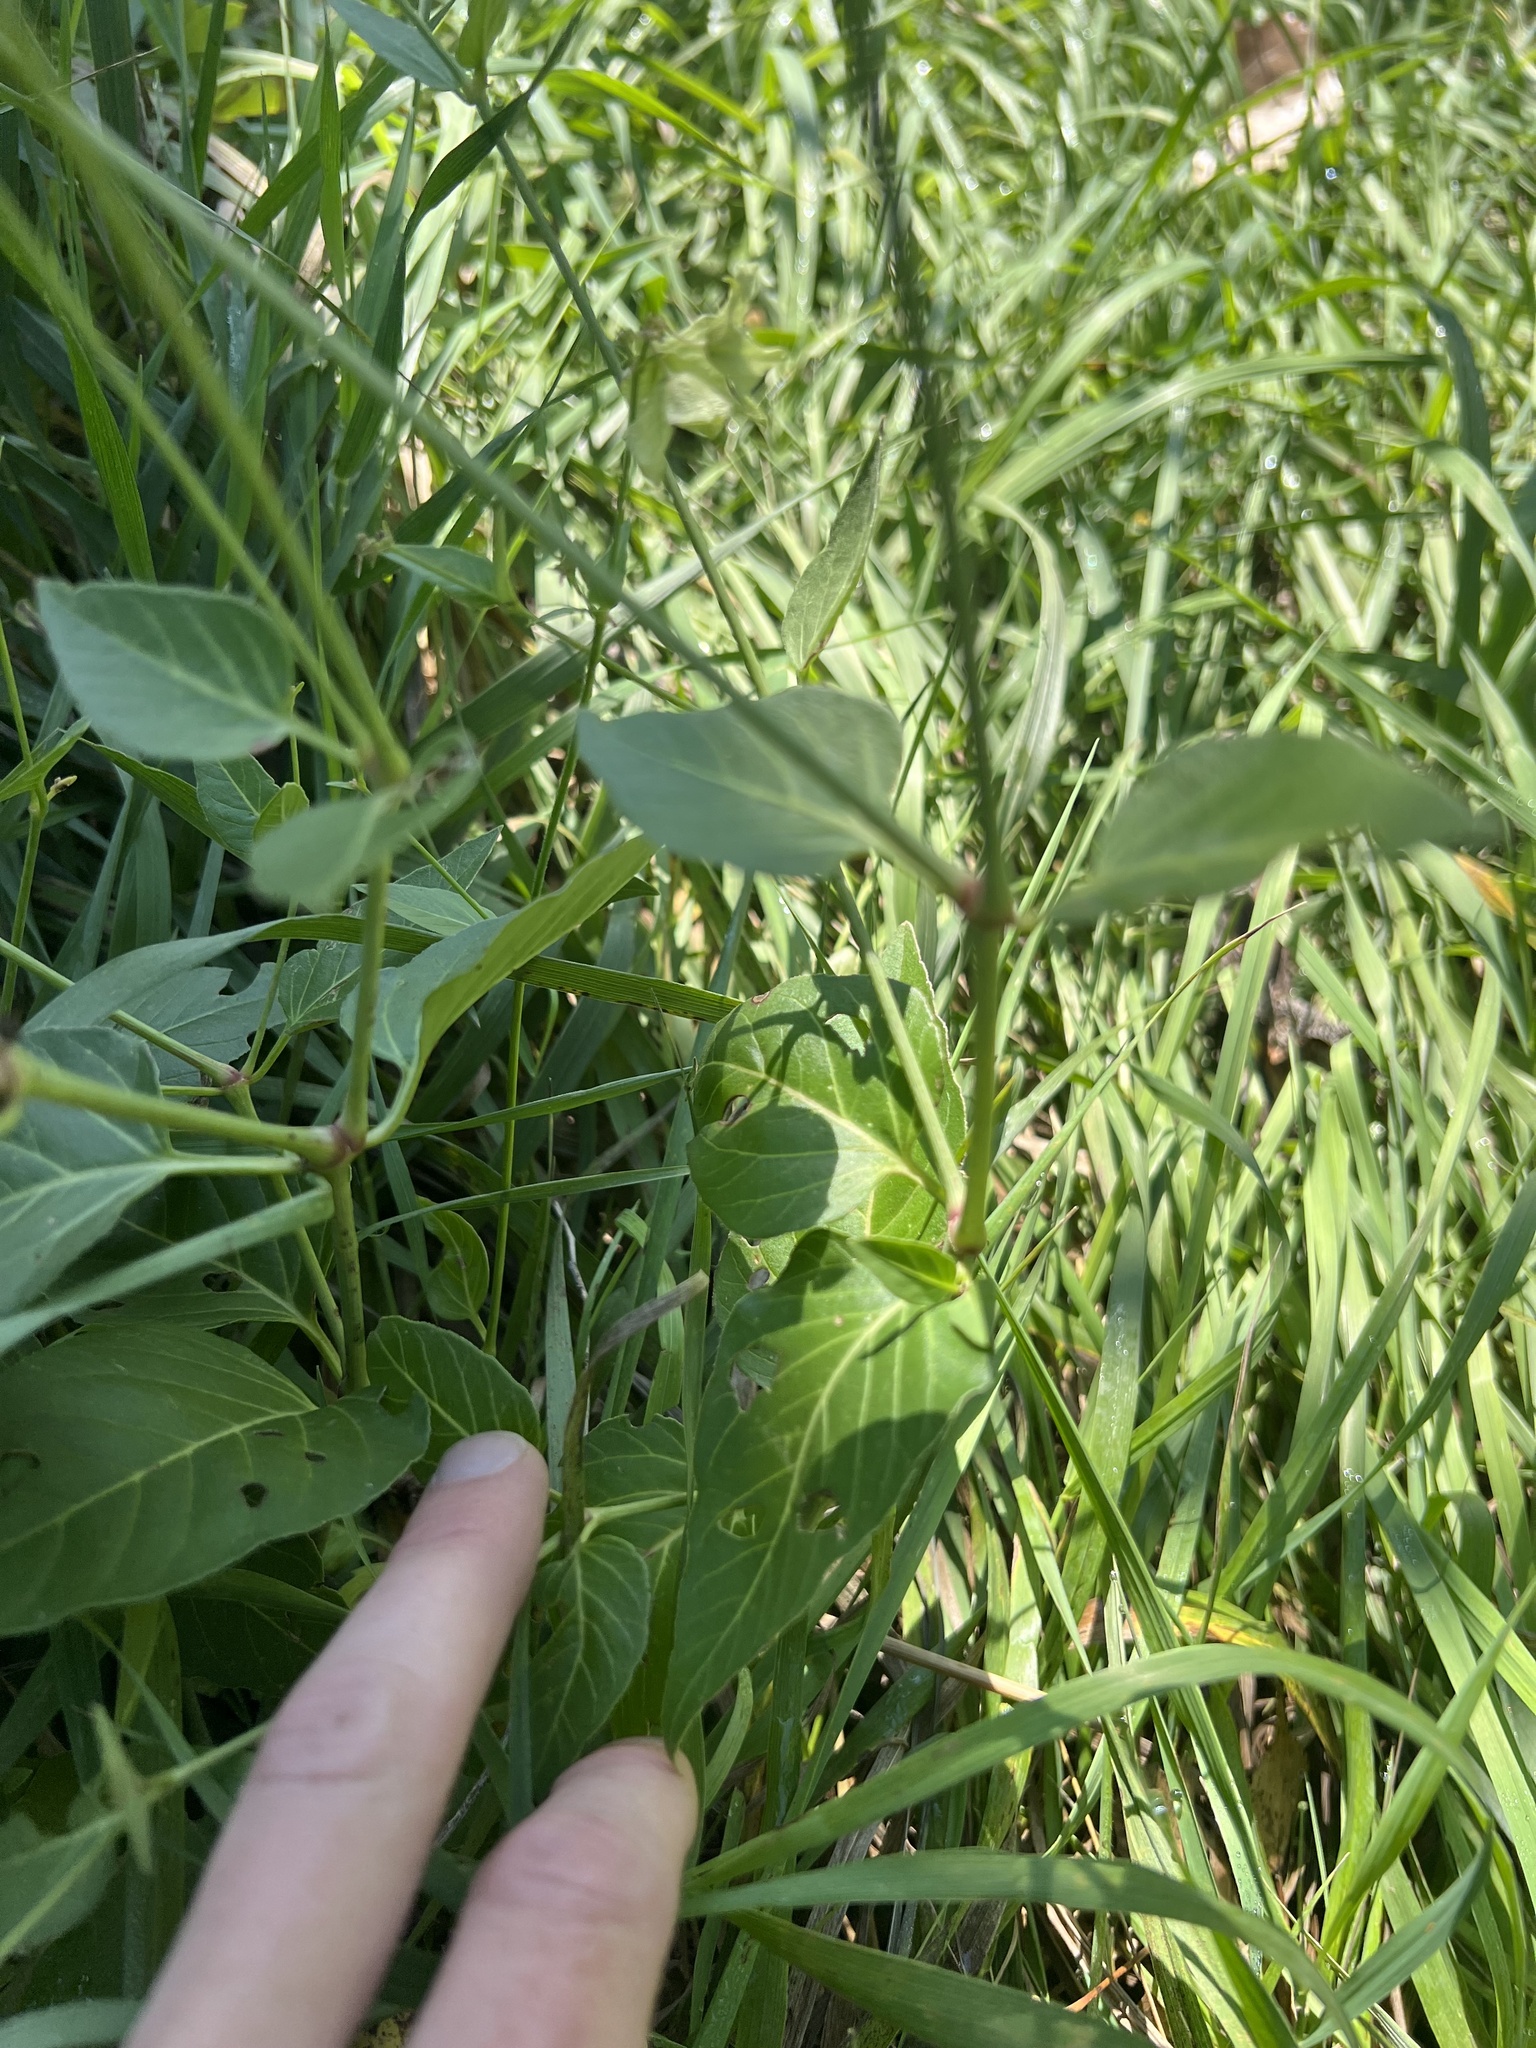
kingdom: Plantae
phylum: Tracheophyta
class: Magnoliopsida
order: Caryophyllales
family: Nyctaginaceae
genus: Mirabilis
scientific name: Mirabilis nyctaginea
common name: Umbrella wort
